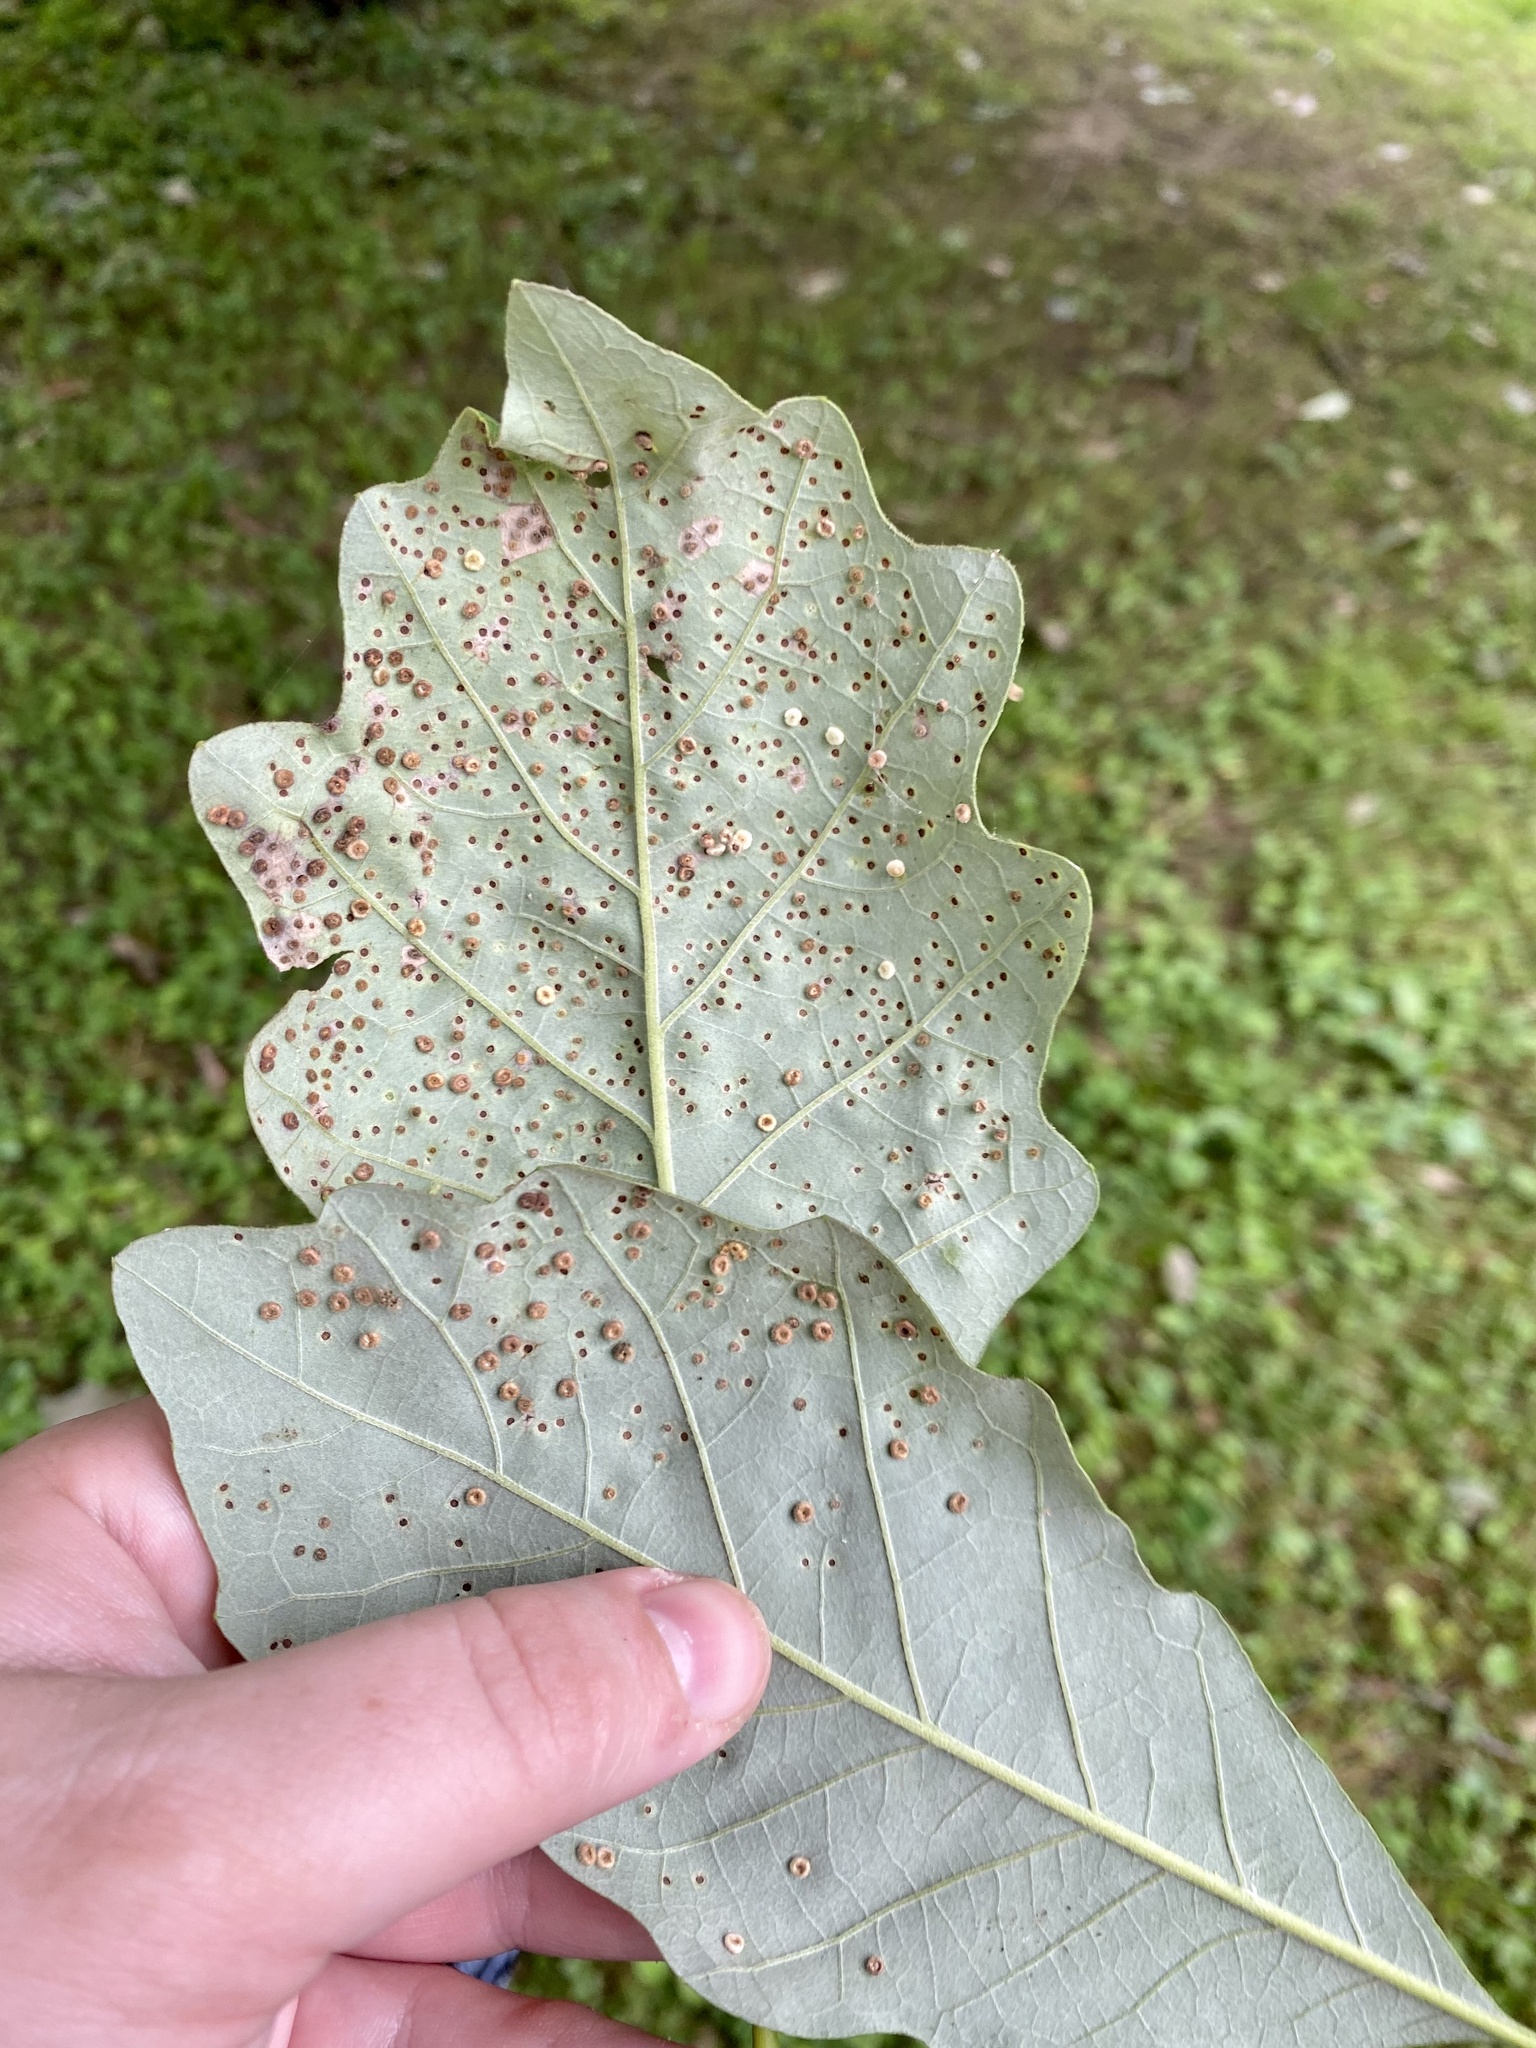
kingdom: Animalia
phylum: Arthropoda
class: Insecta
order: Hymenoptera
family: Cynipidae
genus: Neuroterus
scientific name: Neuroterus
